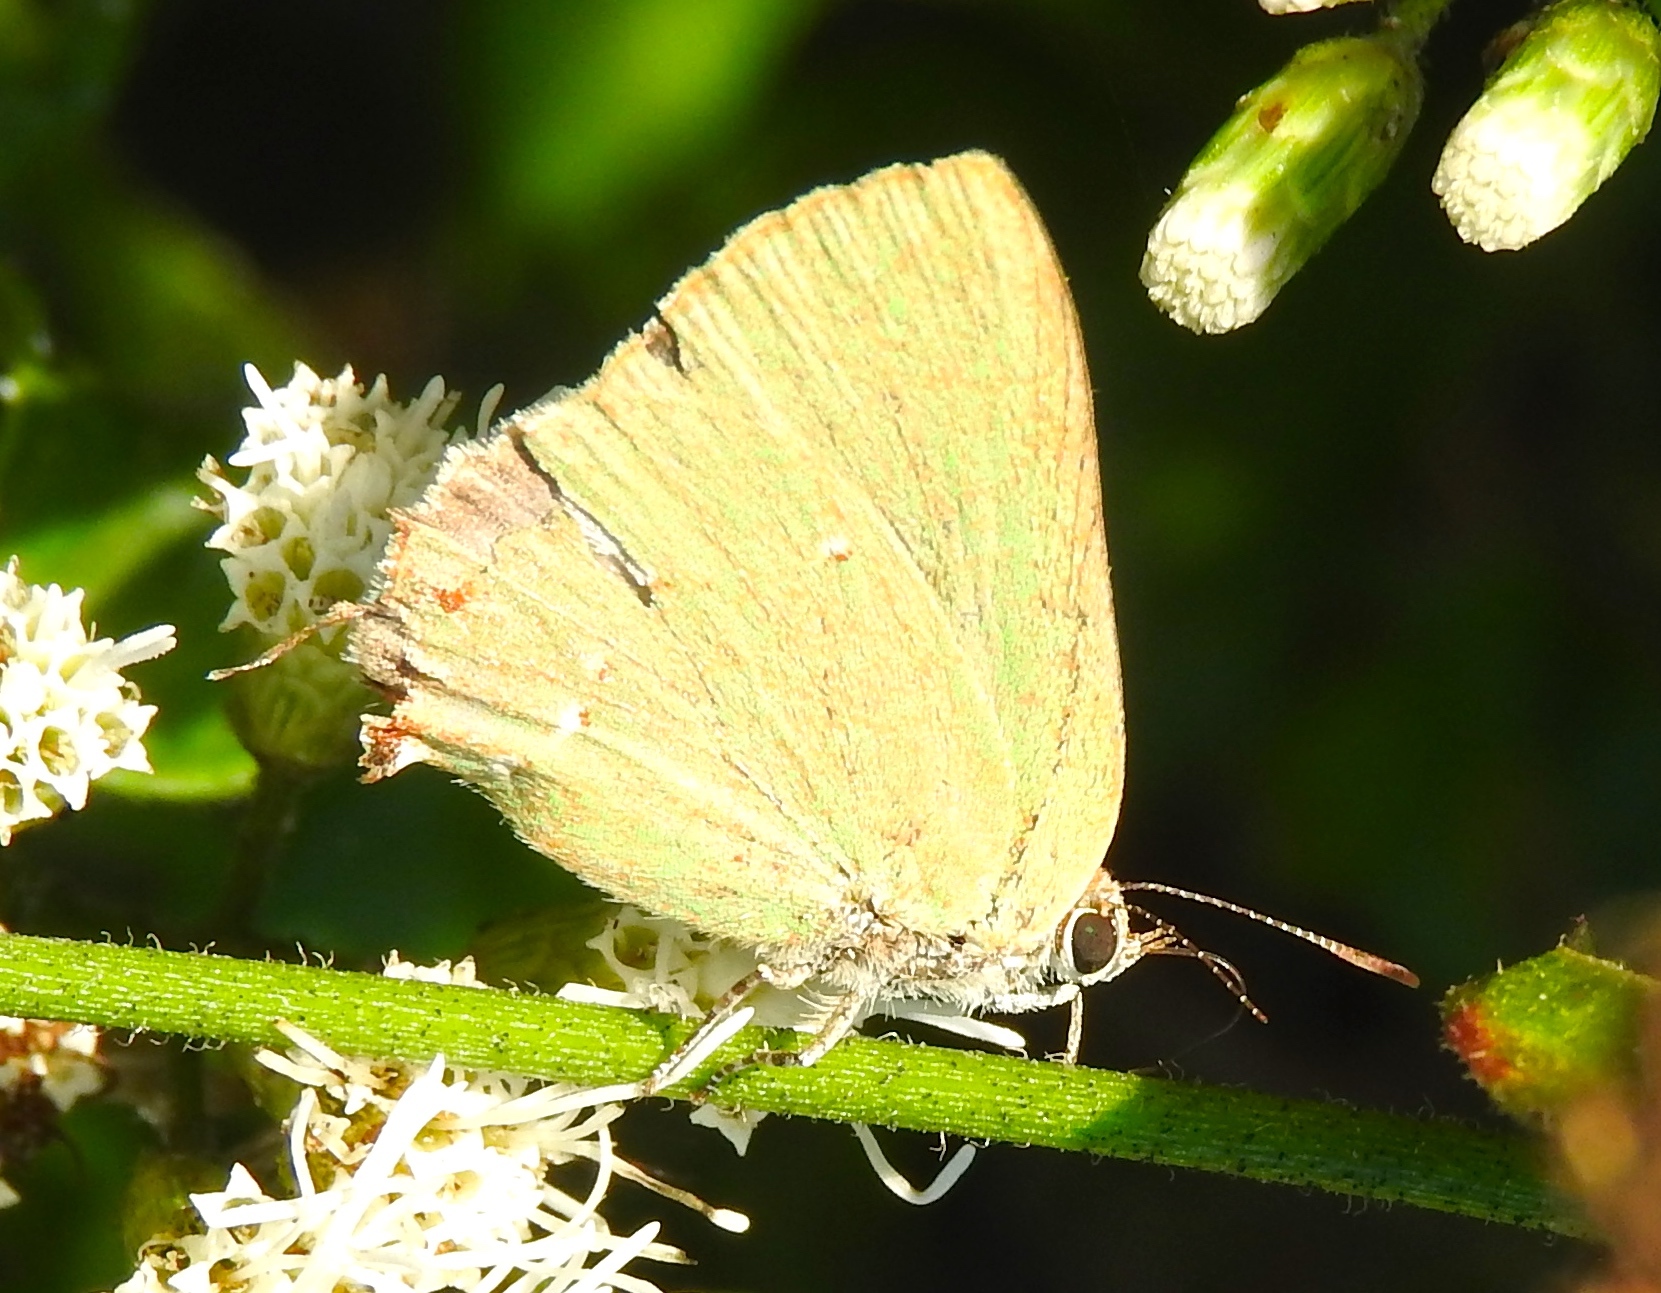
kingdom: Animalia
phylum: Arthropoda
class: Insecta
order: Lepidoptera
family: Lycaenidae
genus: Cyanophrys
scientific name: Cyanophrys
